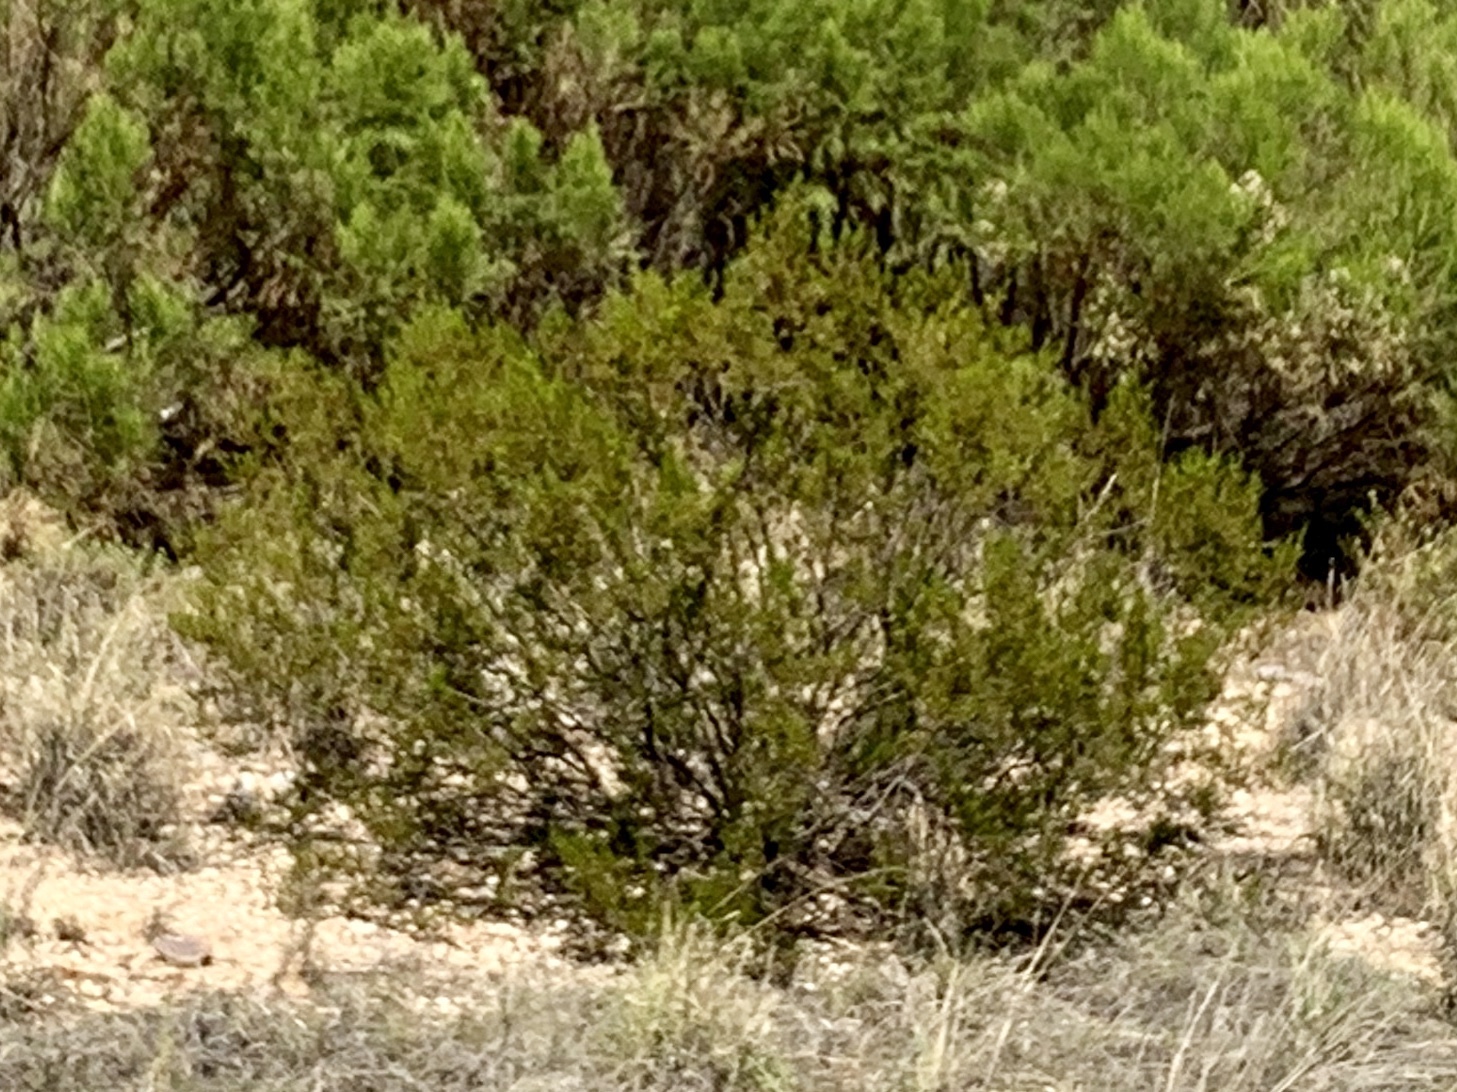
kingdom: Plantae
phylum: Tracheophyta
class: Magnoliopsida
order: Zygophyllales
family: Zygophyllaceae
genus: Larrea
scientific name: Larrea tridentata
